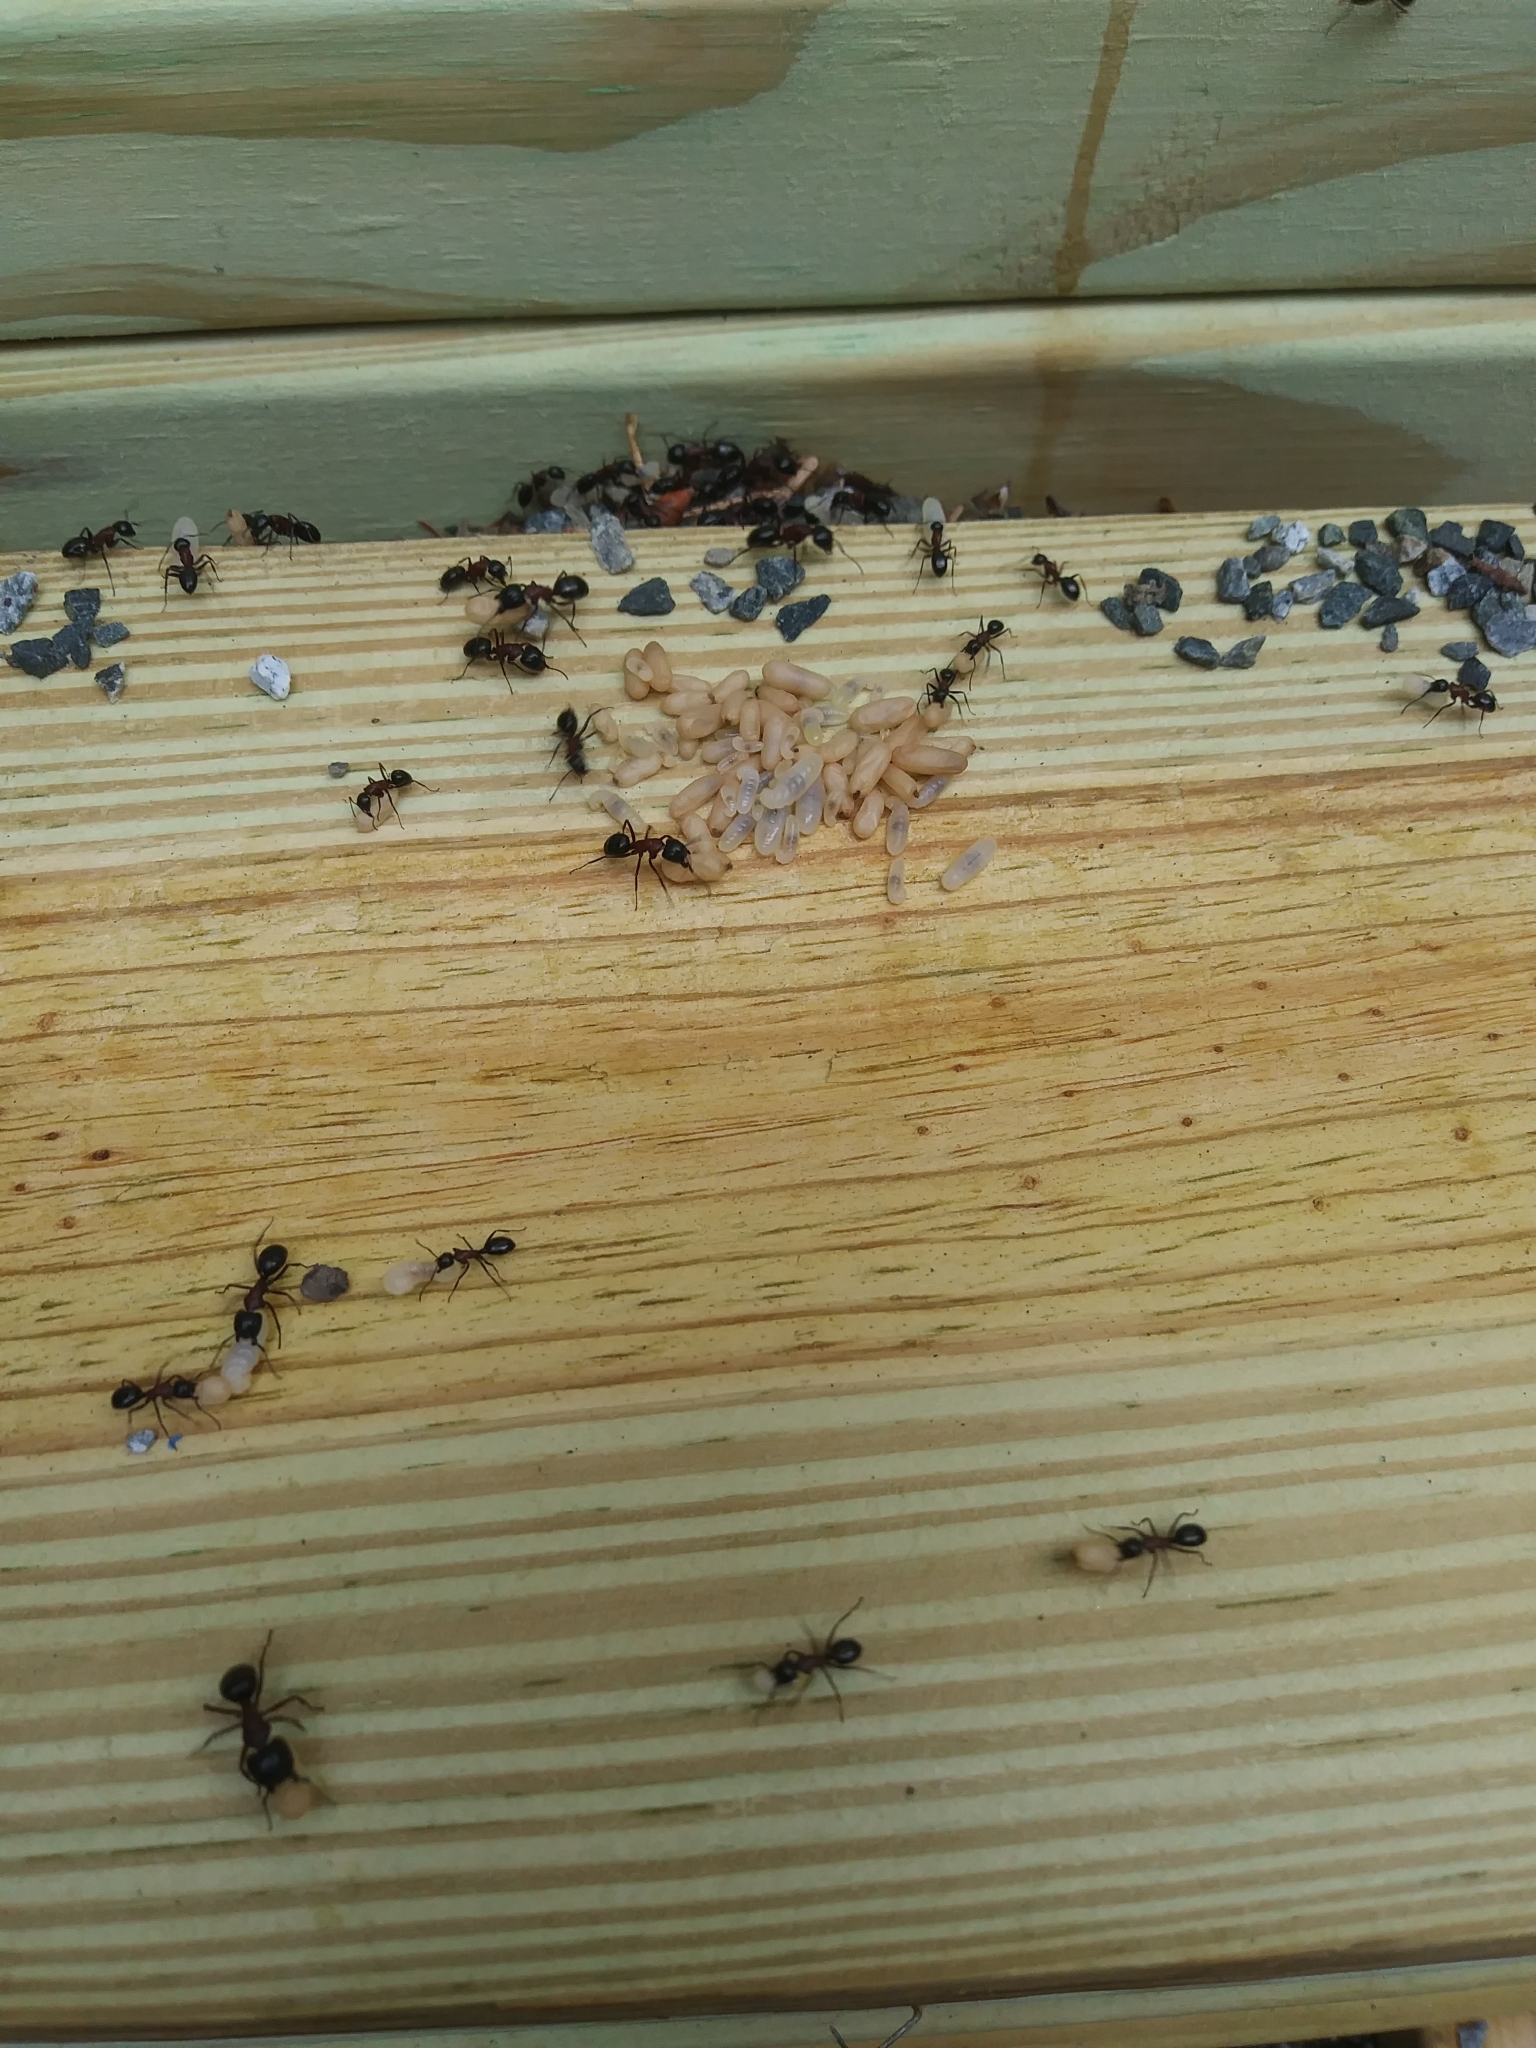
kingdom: Animalia
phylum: Arthropoda
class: Insecta
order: Hymenoptera
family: Formicidae
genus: Camponotus
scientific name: Camponotus novaeboracensis
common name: New york carpenter ant
